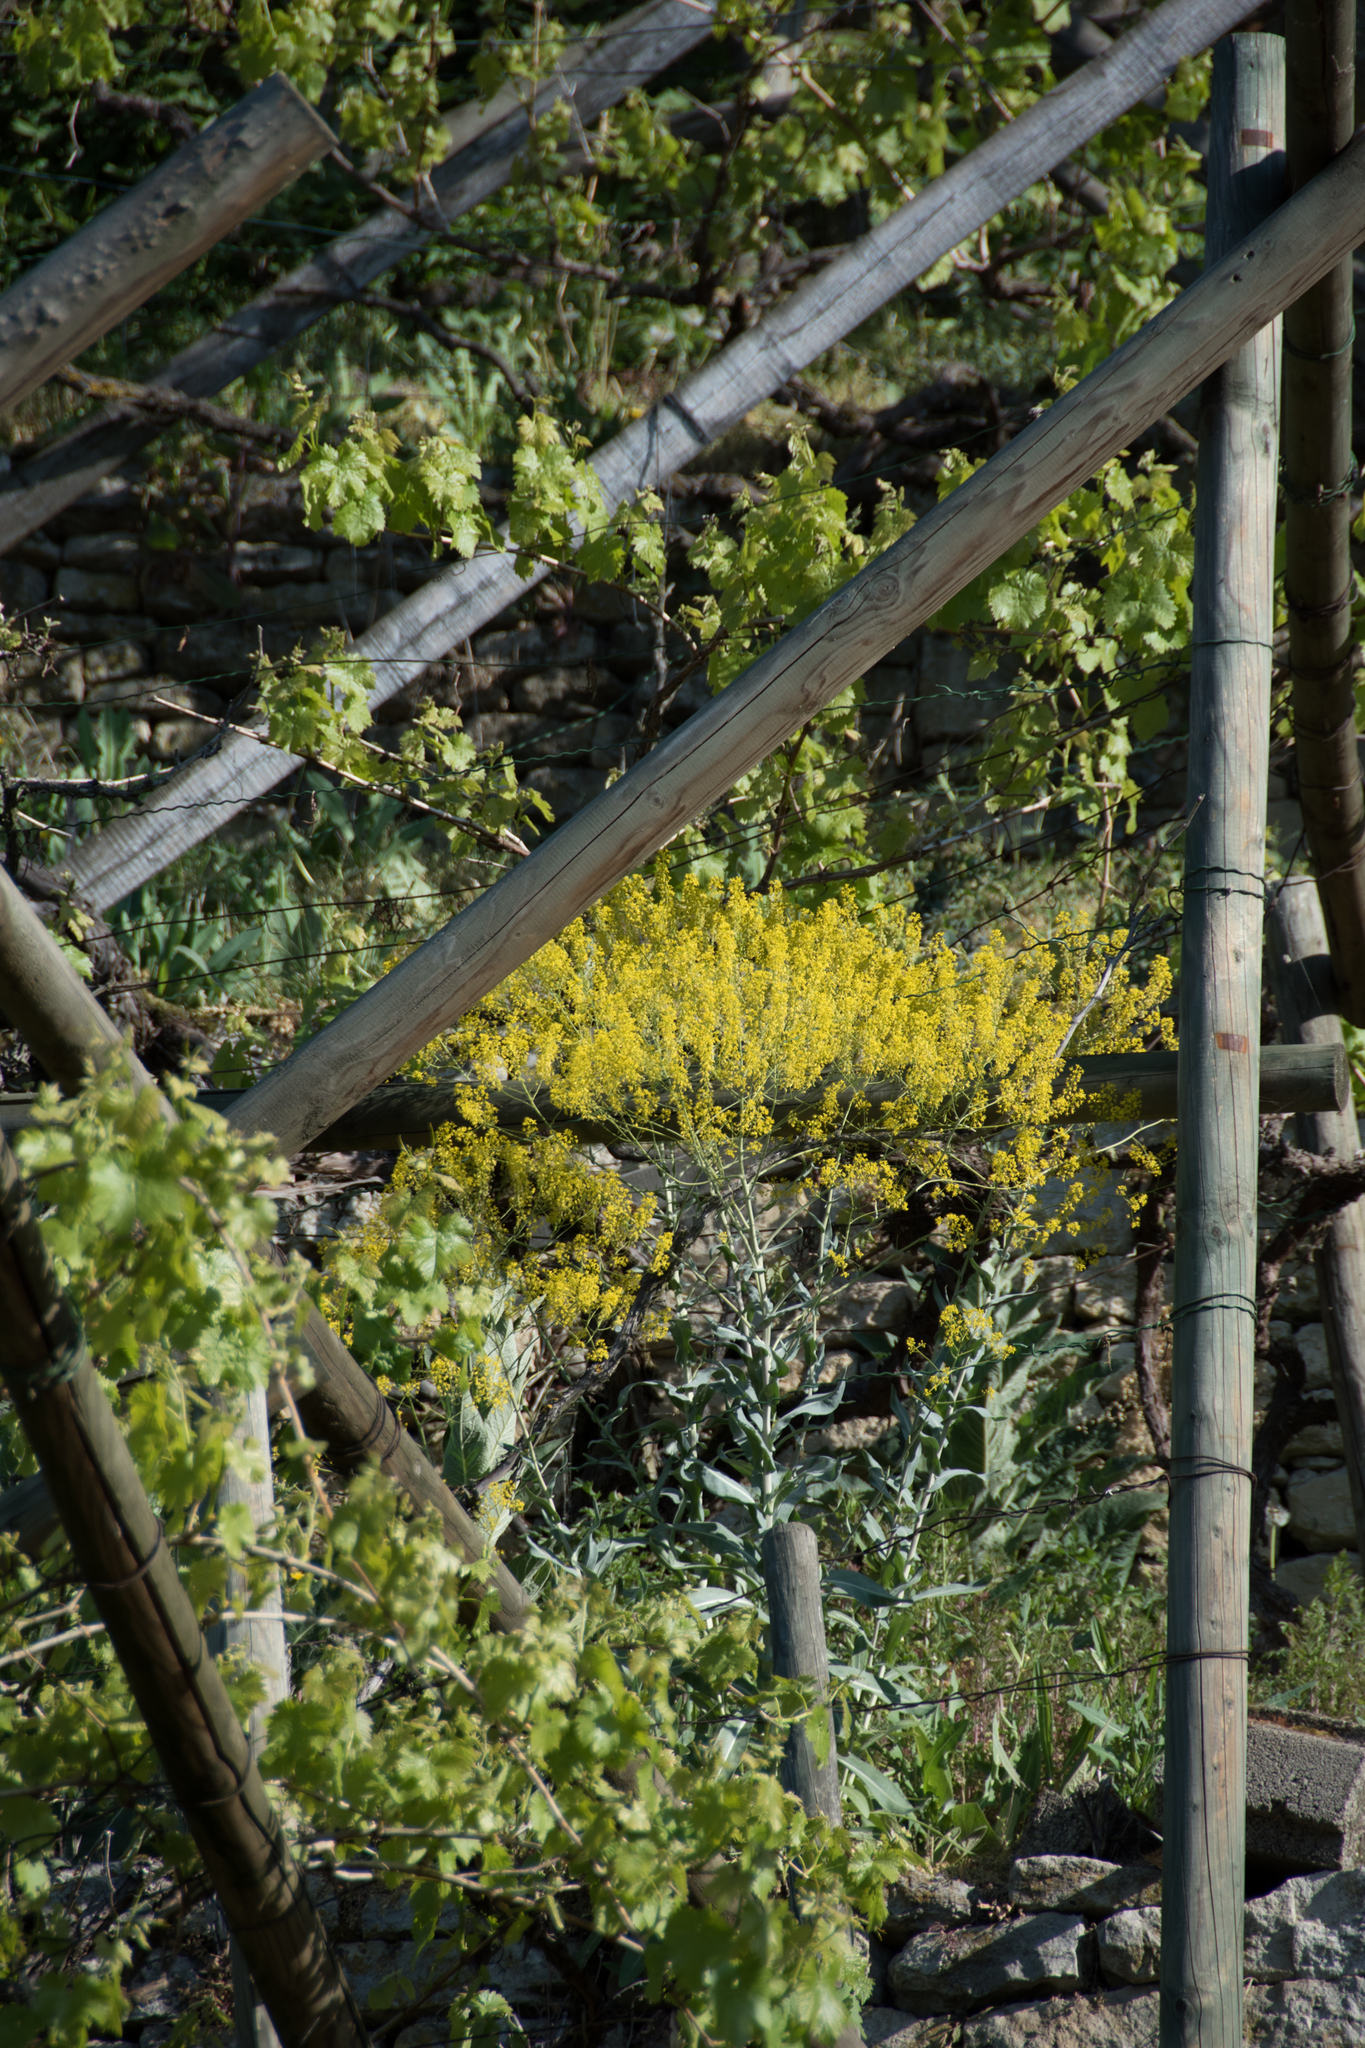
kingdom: Plantae
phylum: Tracheophyta
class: Magnoliopsida
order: Brassicales
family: Brassicaceae
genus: Isatis
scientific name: Isatis tinctoria
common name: Woad
